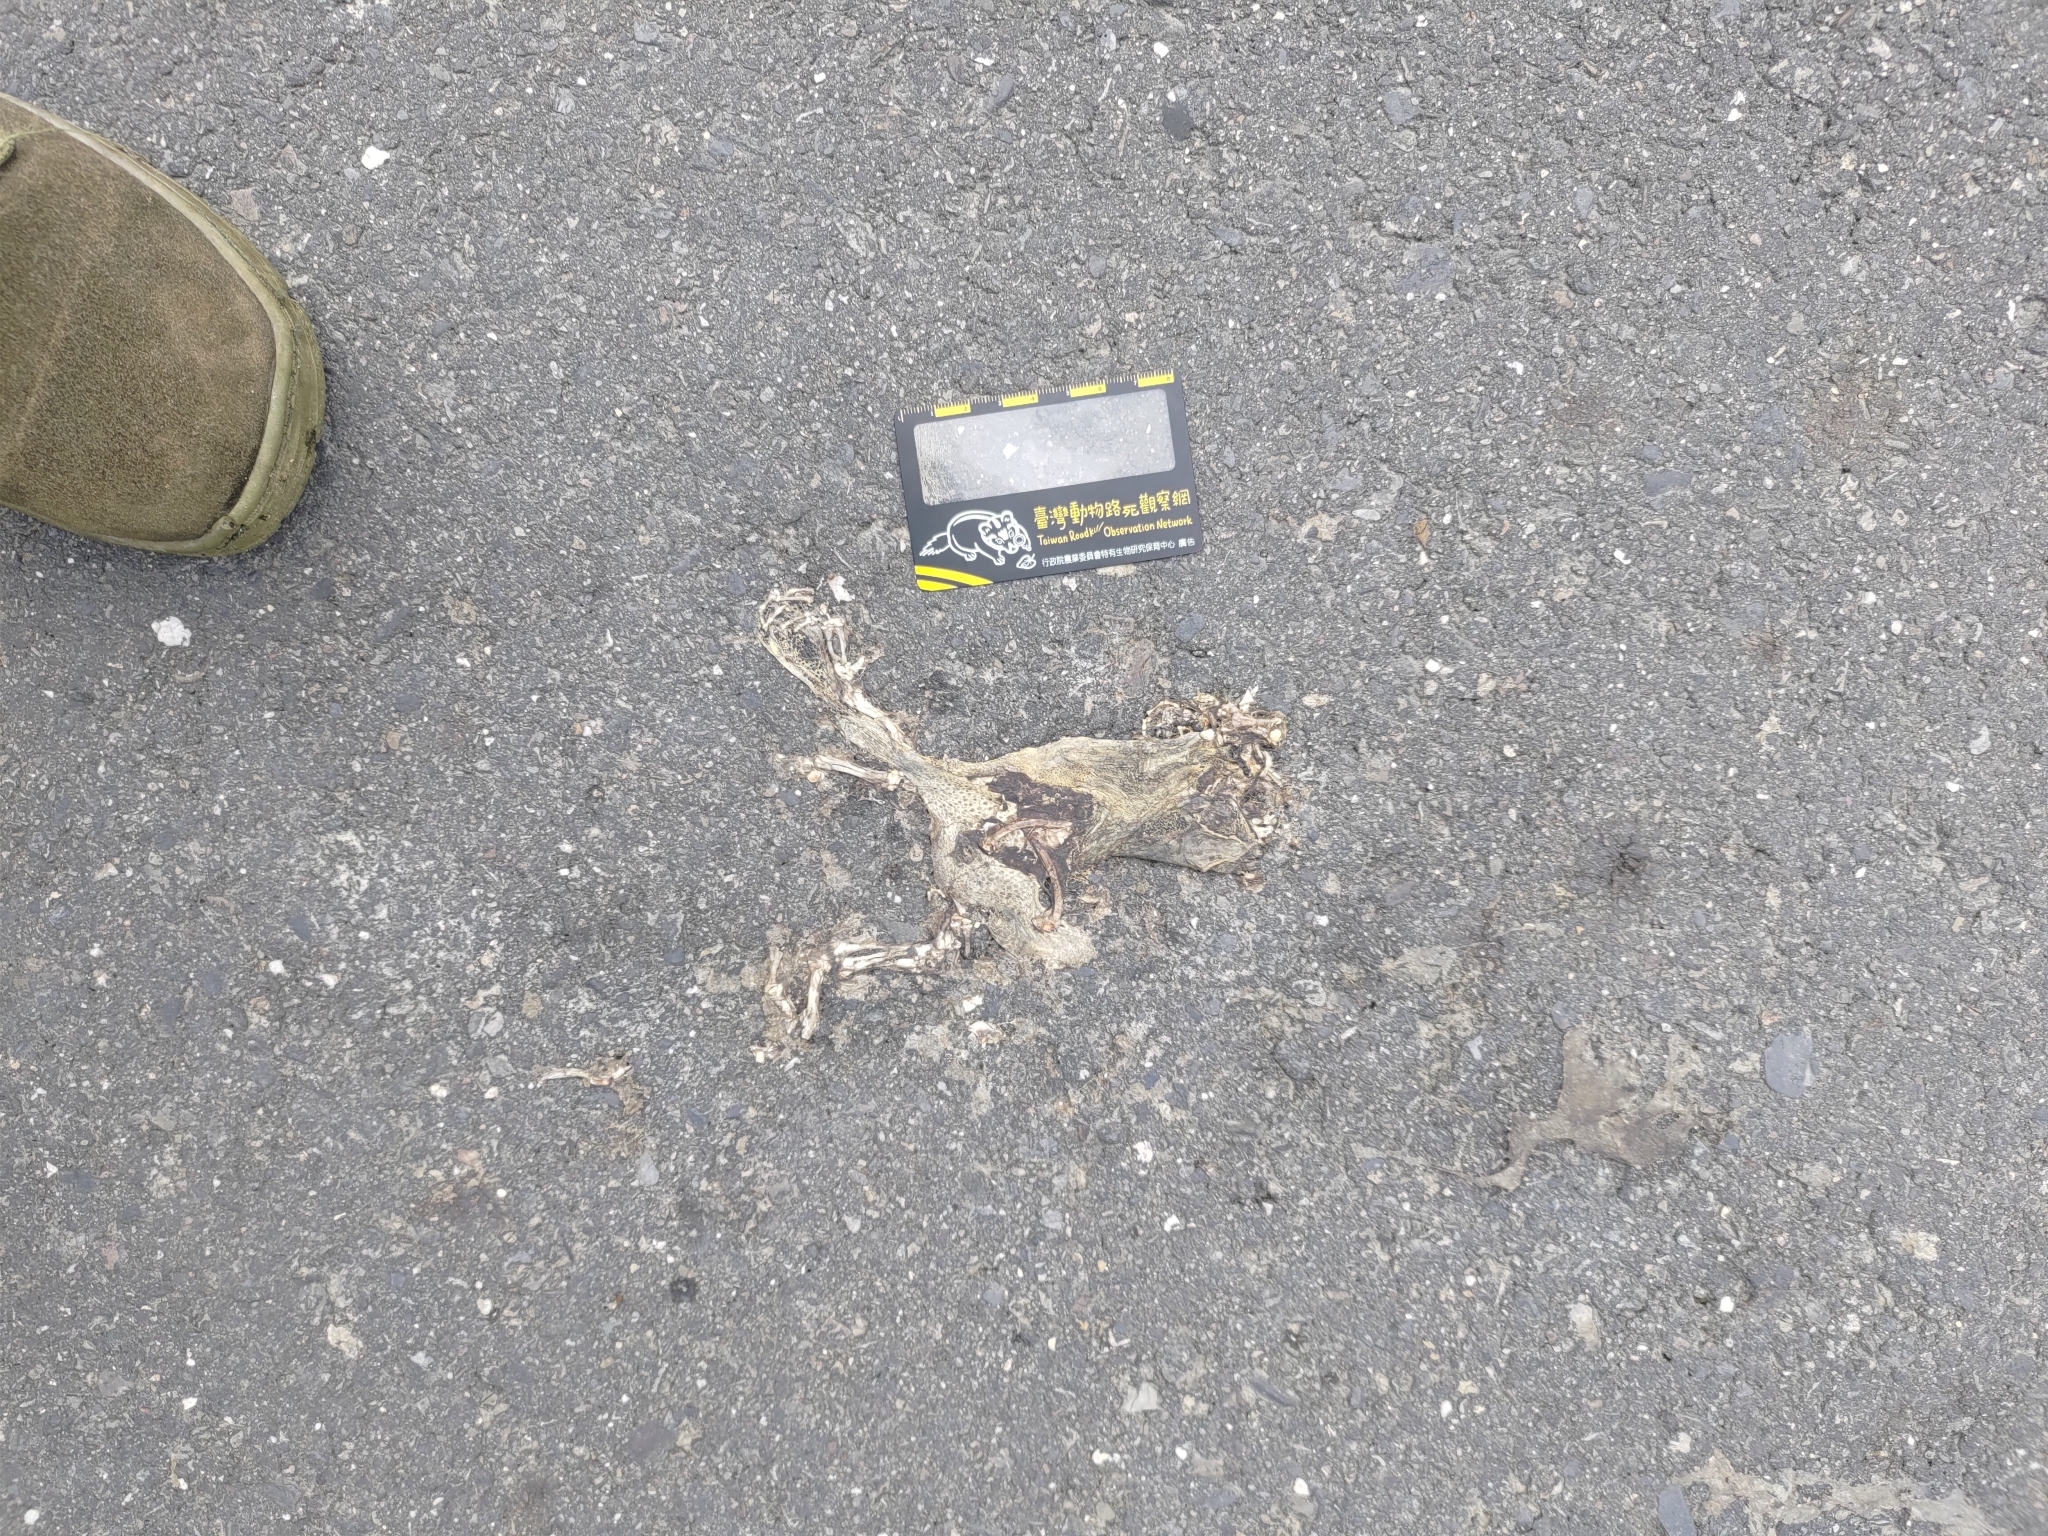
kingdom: Animalia
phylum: Chordata
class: Amphibia
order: Anura
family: Bufonidae
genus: Duttaphrynus
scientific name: Duttaphrynus melanostictus
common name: Common sunda toad
